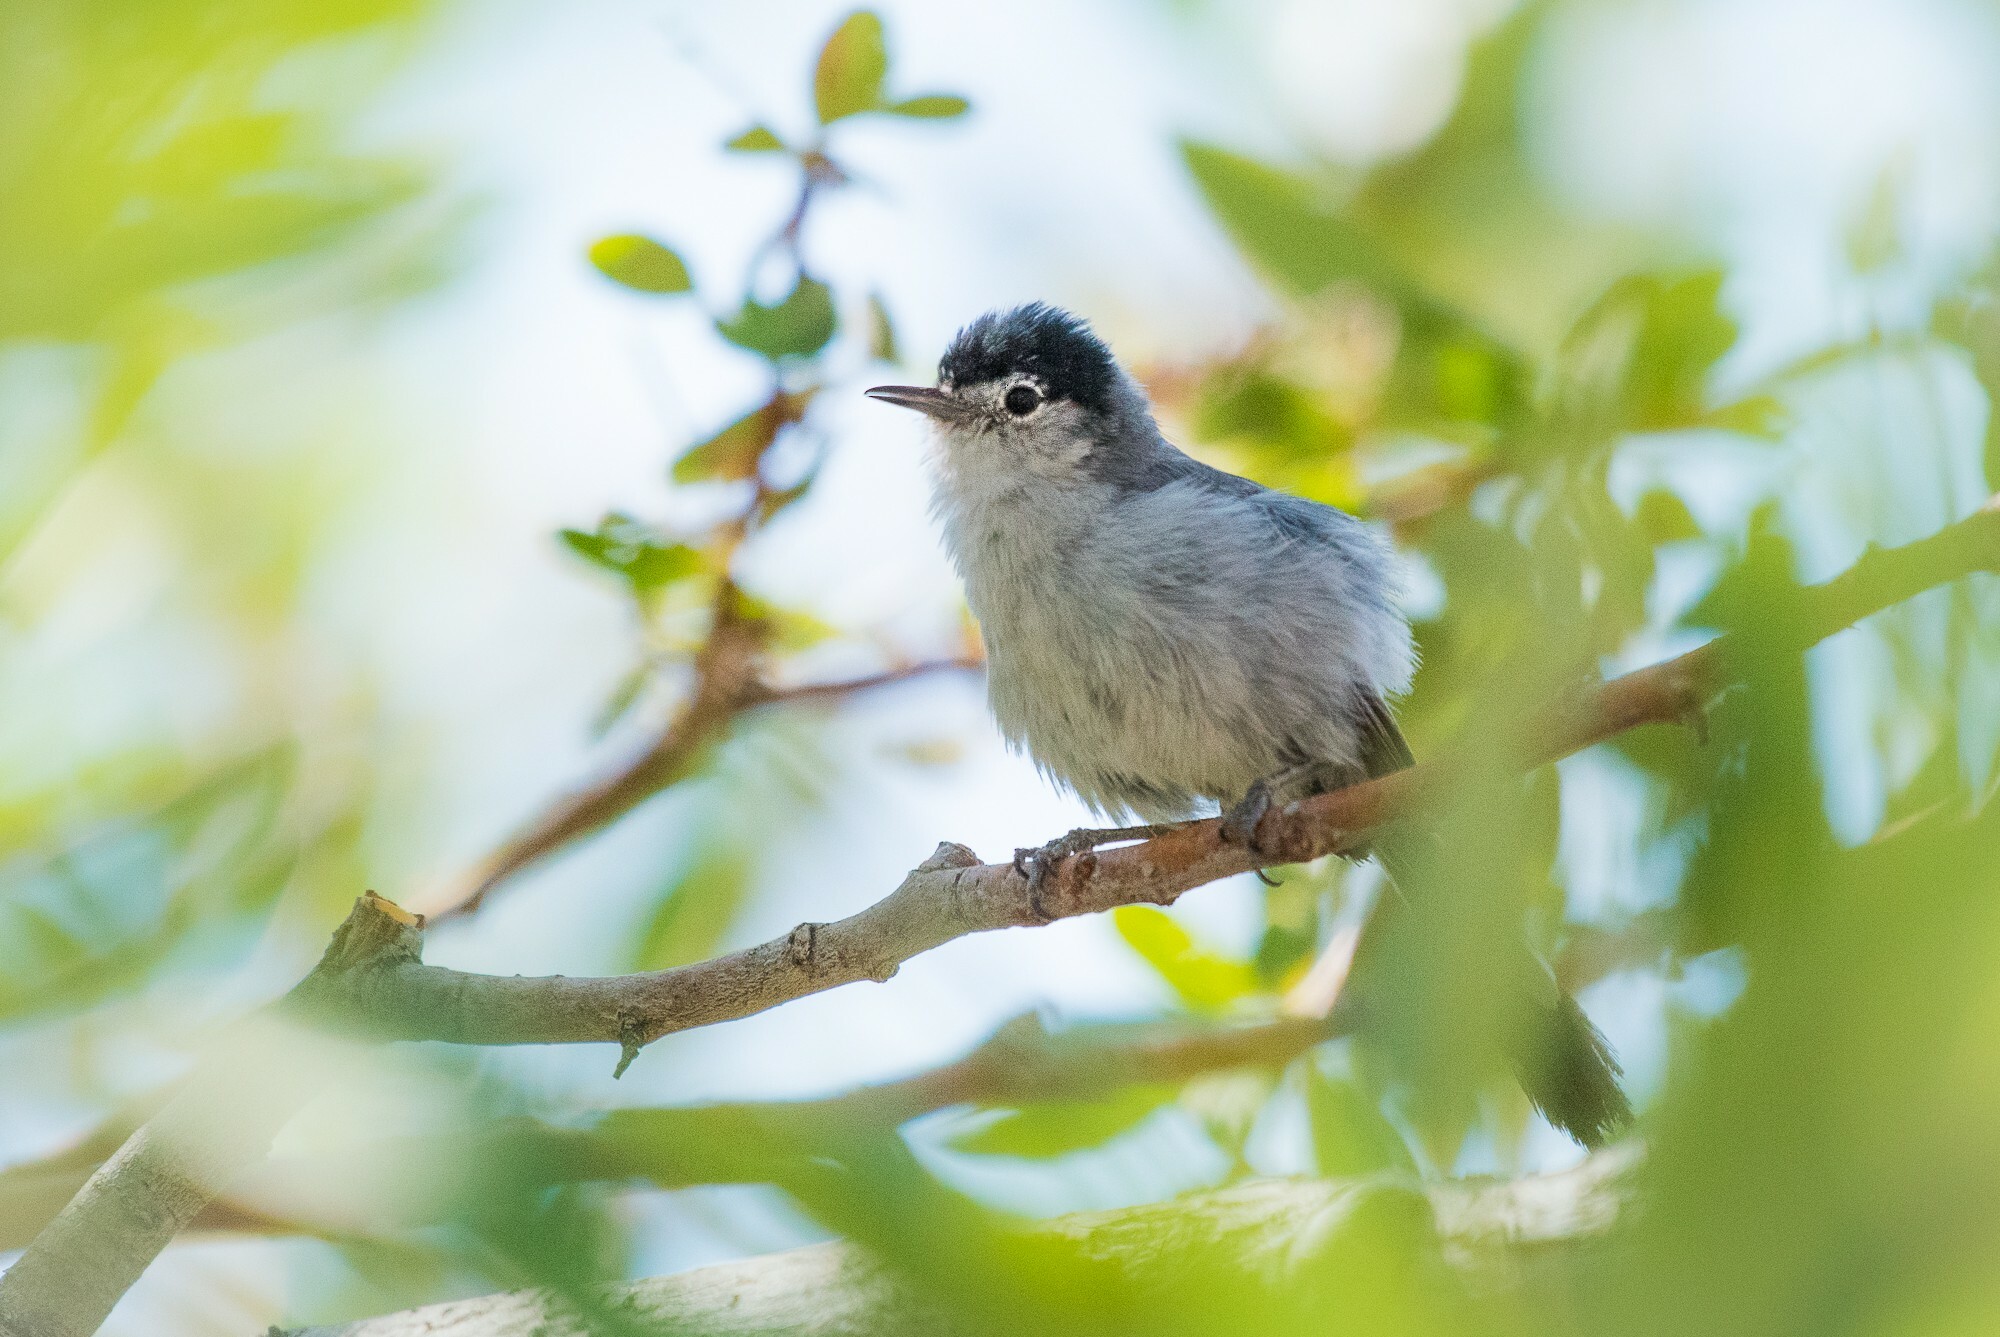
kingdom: Animalia
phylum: Chordata
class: Aves
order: Passeriformes
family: Polioptilidae
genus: Polioptila
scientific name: Polioptila melanura
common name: Black-tailed gnatcatcher
